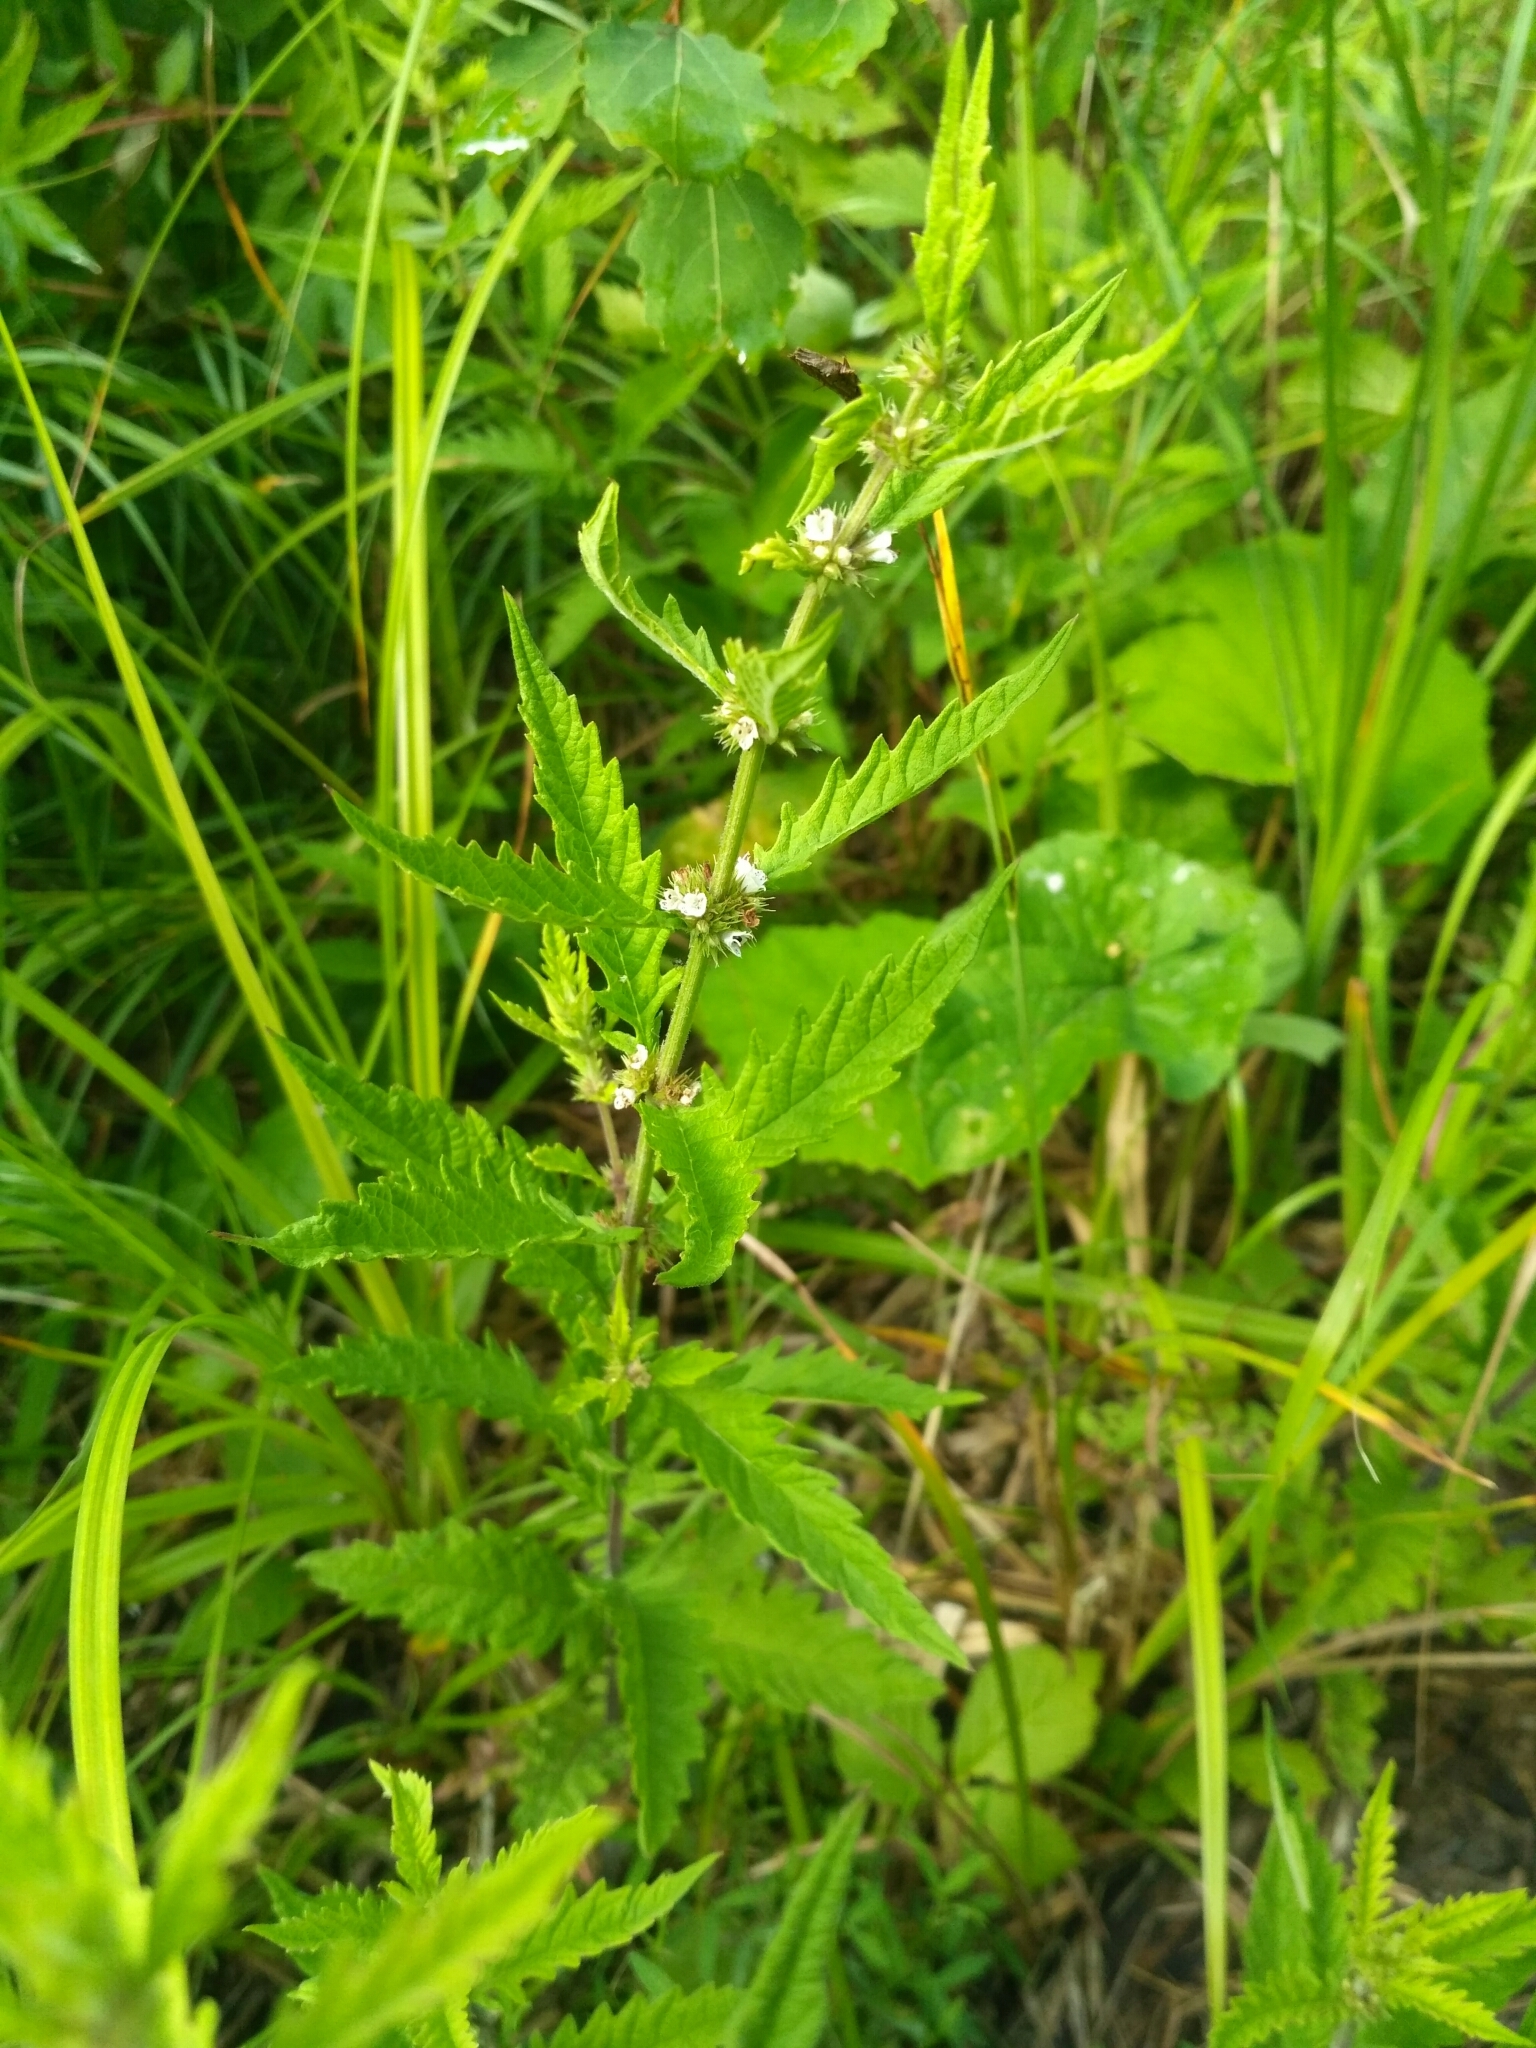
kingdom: Plantae
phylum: Tracheophyta
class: Magnoliopsida
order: Lamiales
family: Lamiaceae
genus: Lycopus
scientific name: Lycopus europaeus
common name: European bugleweed
